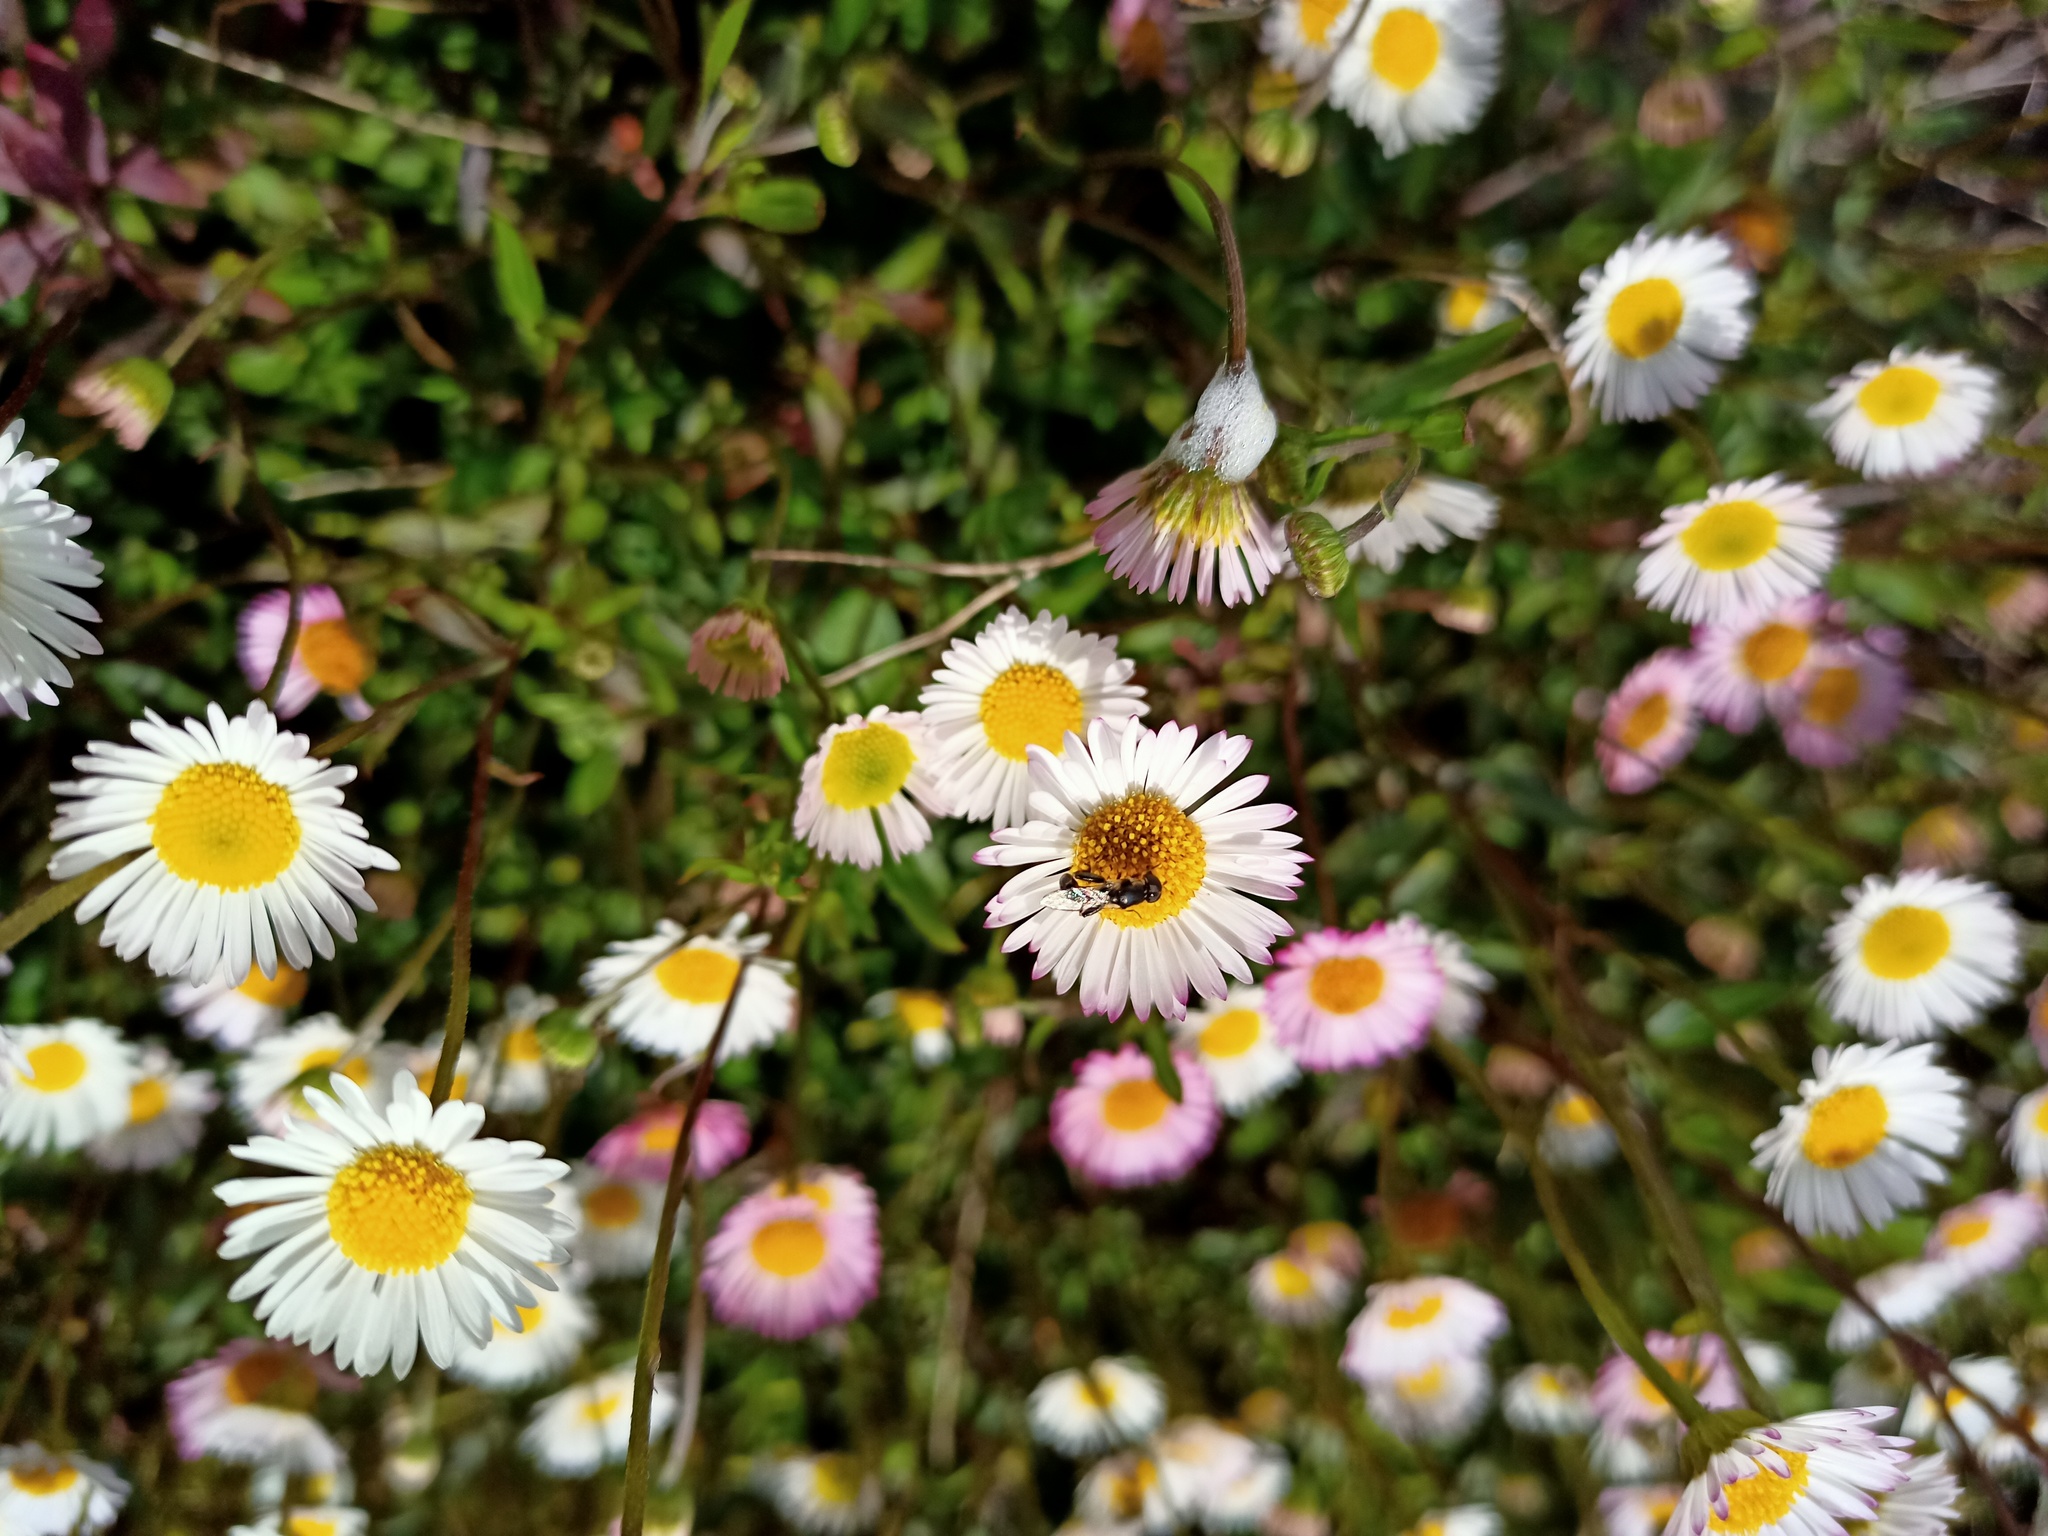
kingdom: Animalia
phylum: Arthropoda
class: Insecta
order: Diptera
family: Syrphidae
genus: Syritta
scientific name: Syritta pipiens
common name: Hover fly
